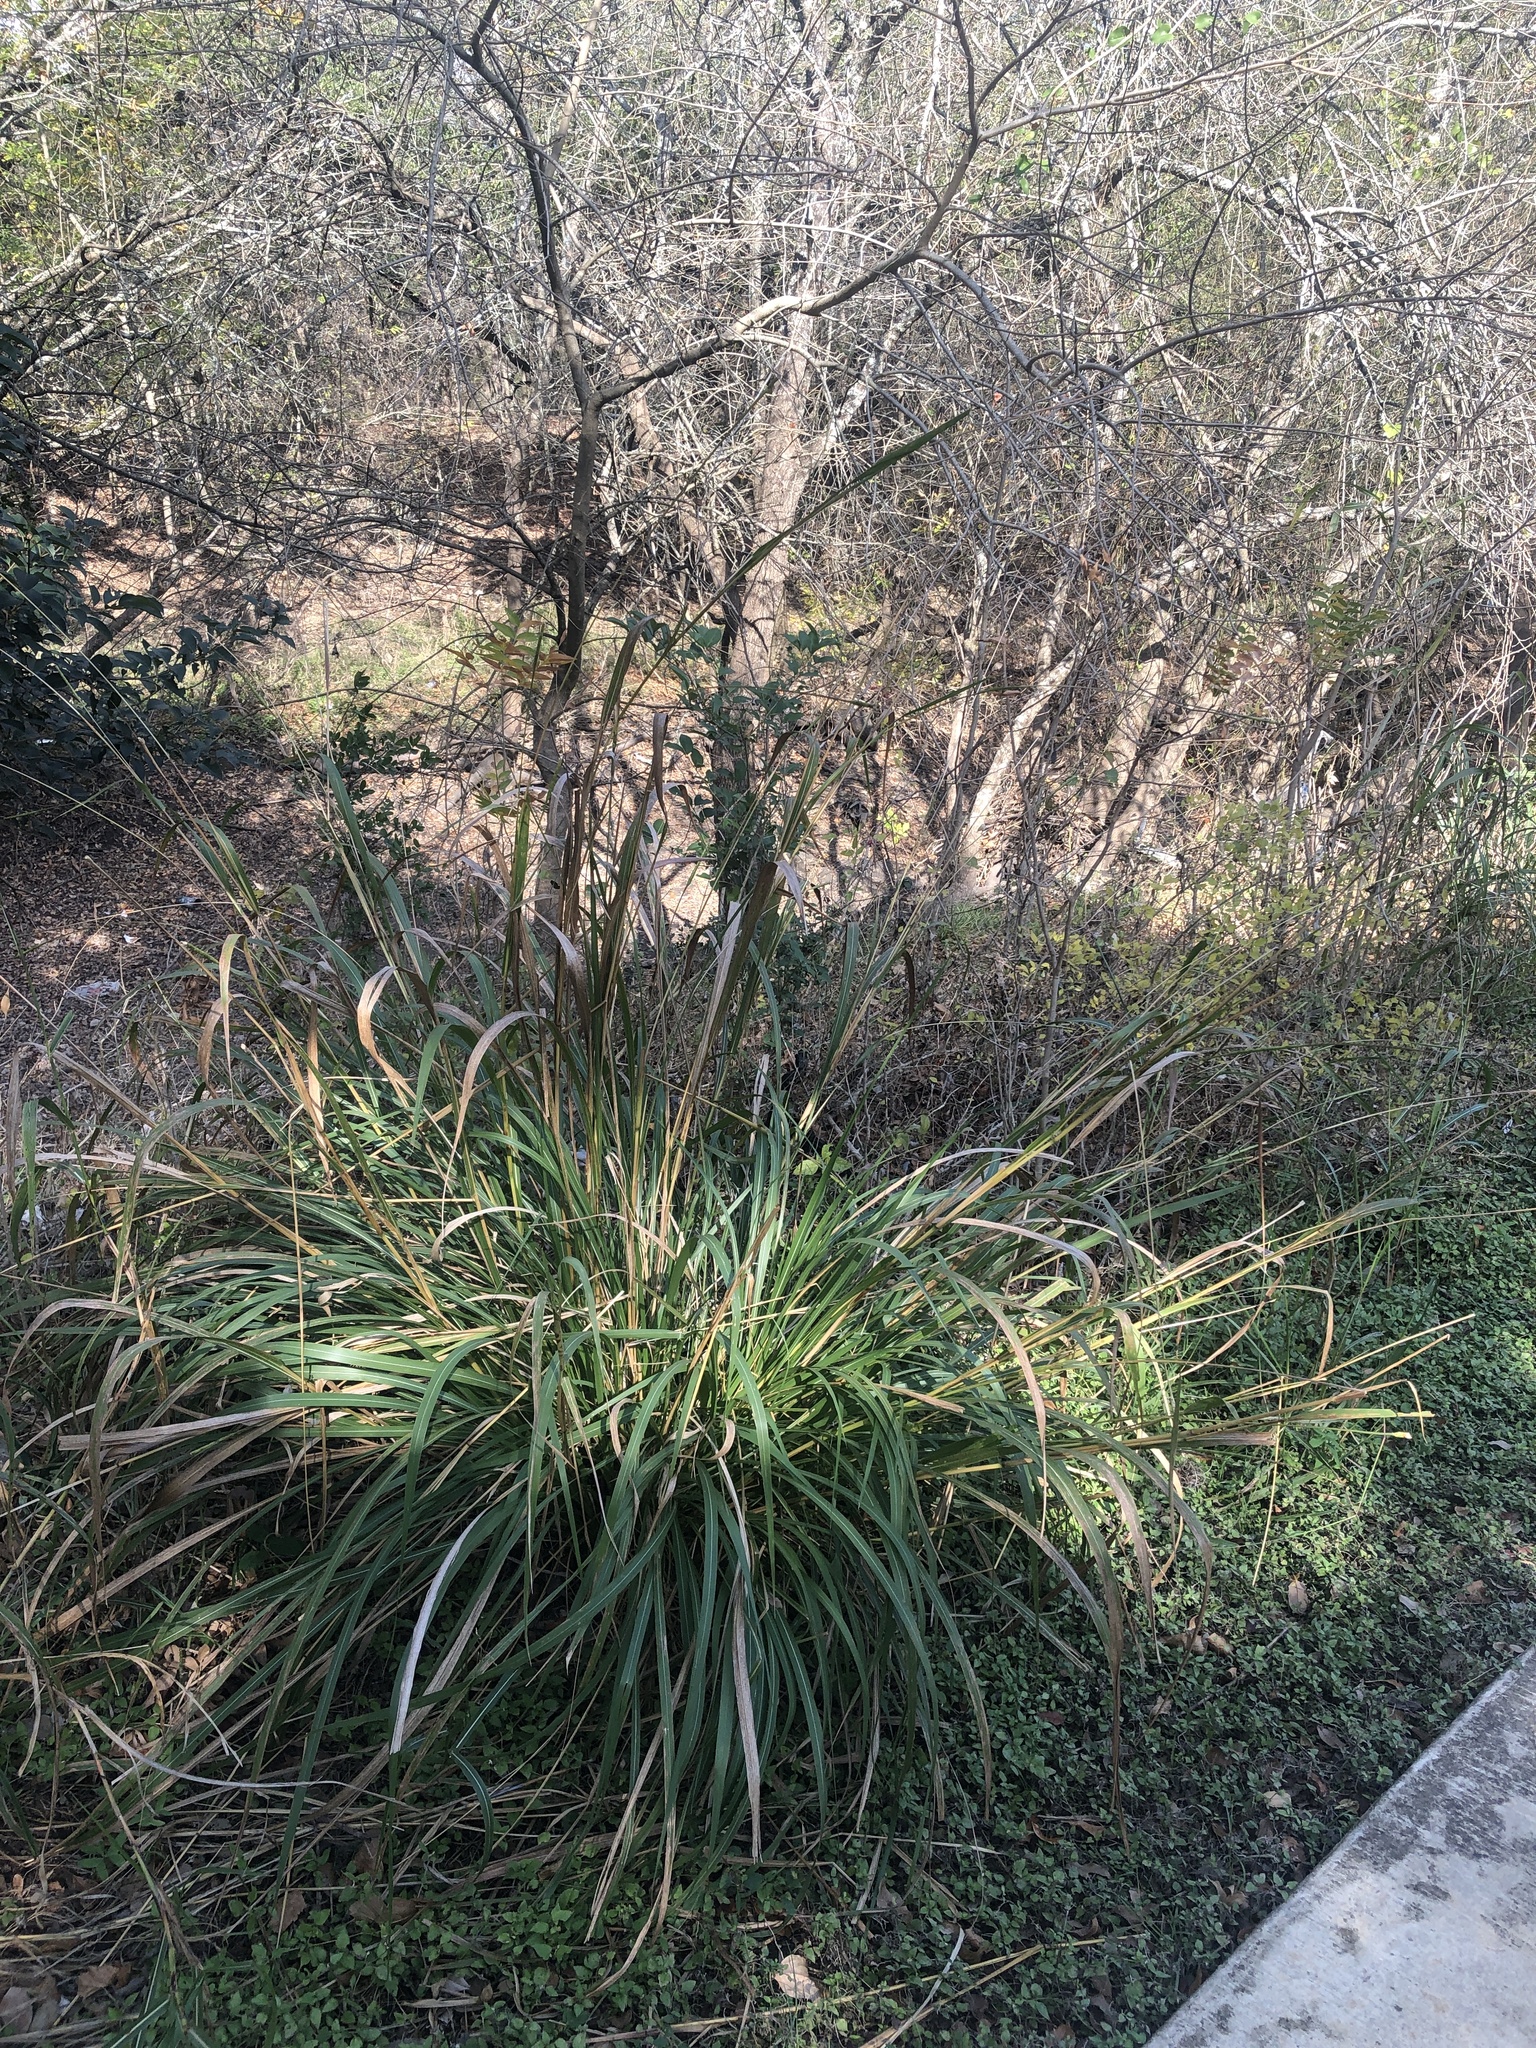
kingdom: Plantae
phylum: Tracheophyta
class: Liliopsida
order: Poales
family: Poaceae
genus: Tripsacum
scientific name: Tripsacum dactyloides
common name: Buffalo-grass
